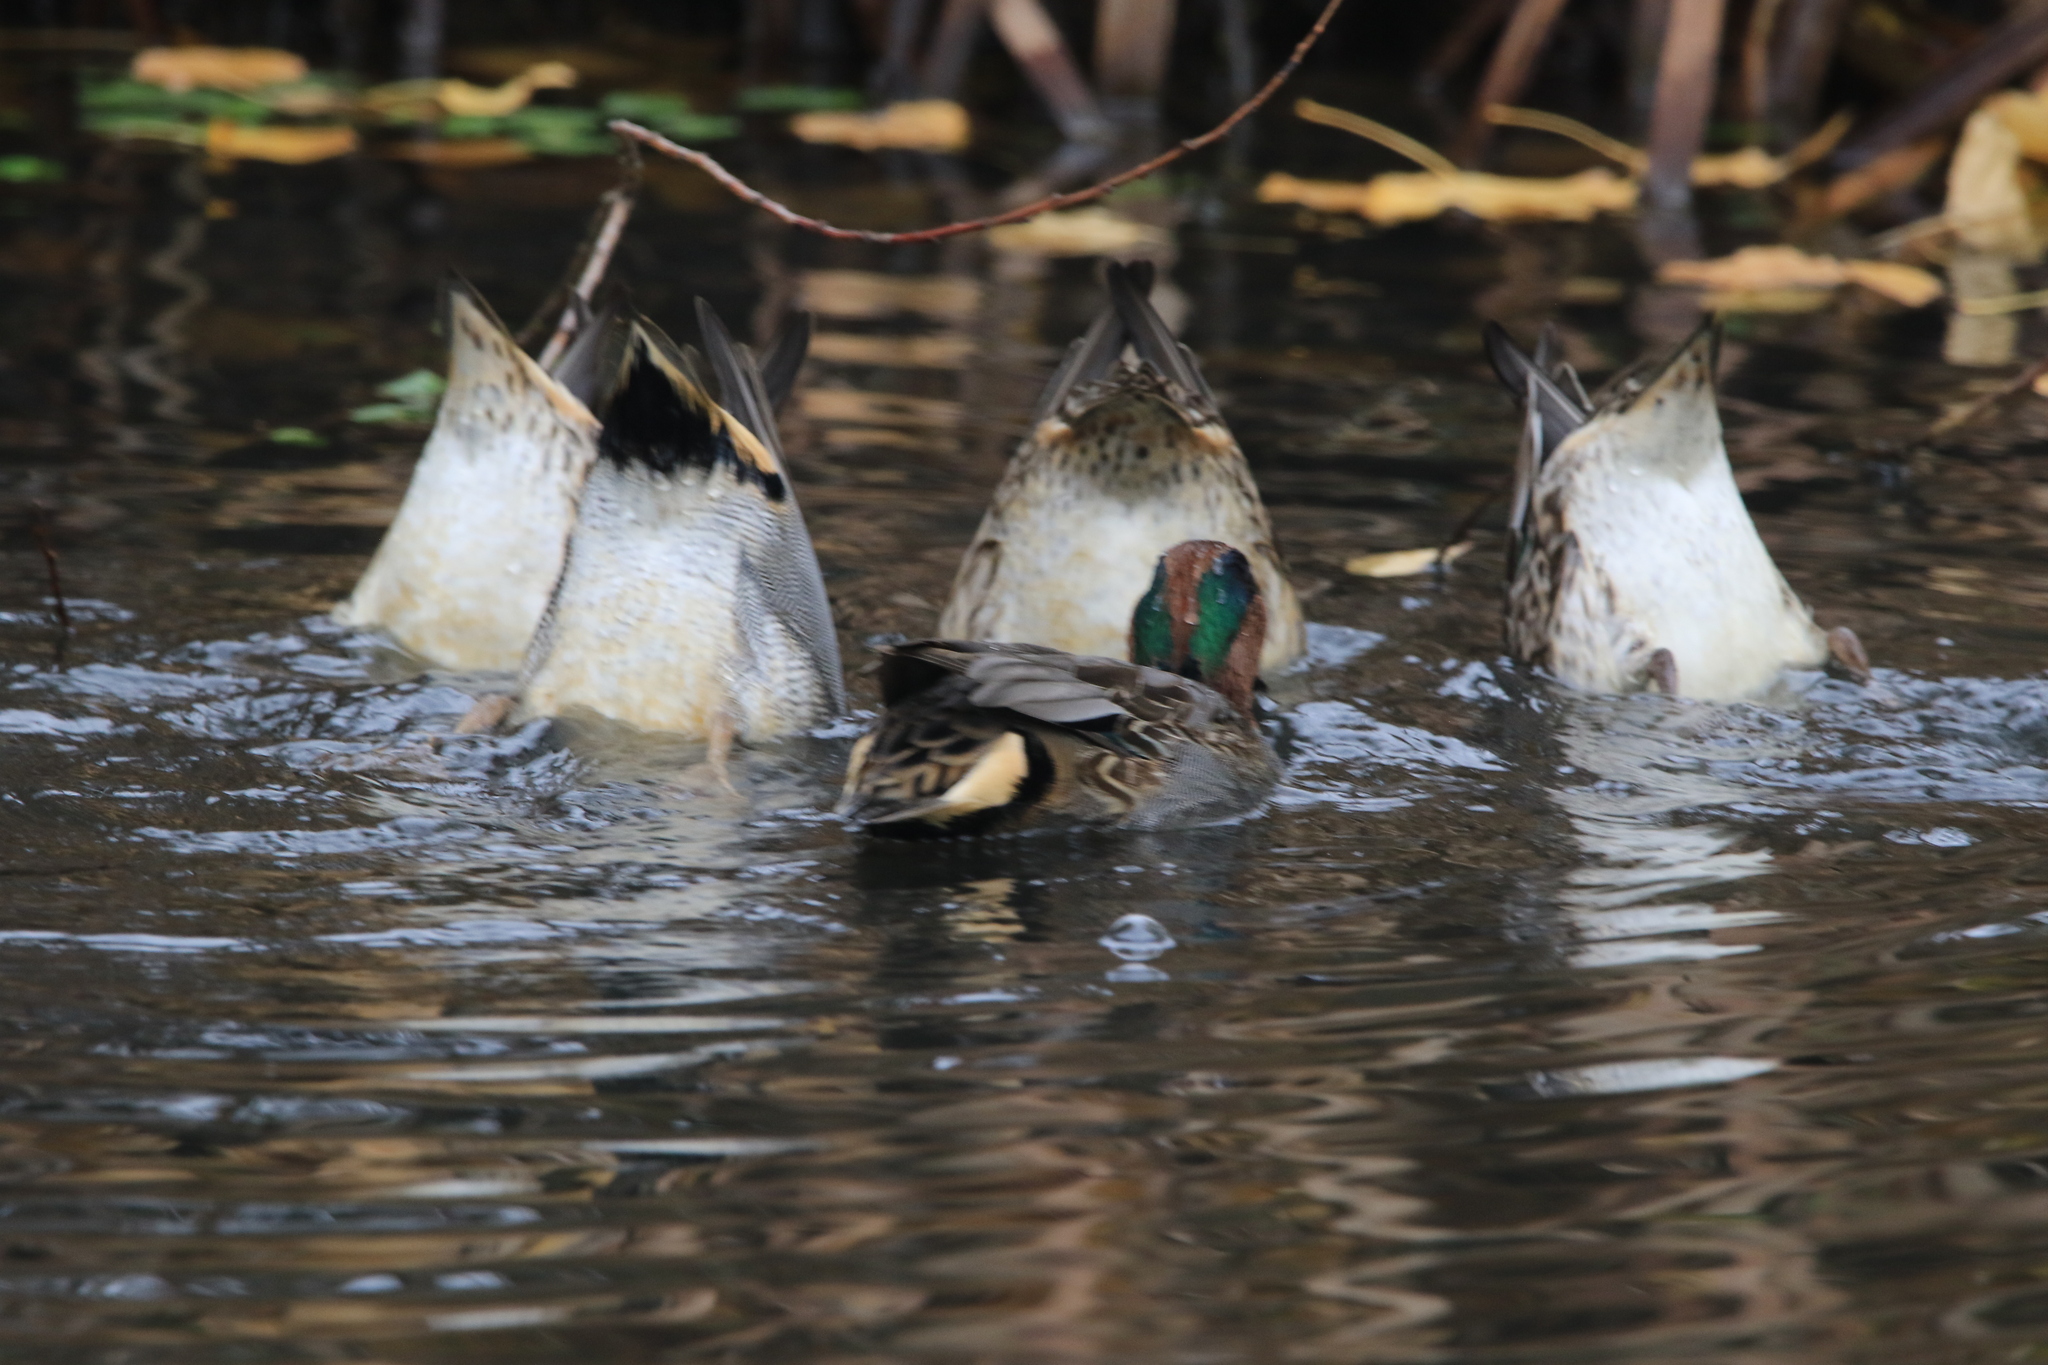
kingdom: Animalia
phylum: Chordata
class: Aves
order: Anseriformes
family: Anatidae
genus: Anas
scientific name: Anas crecca
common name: Eurasian teal
